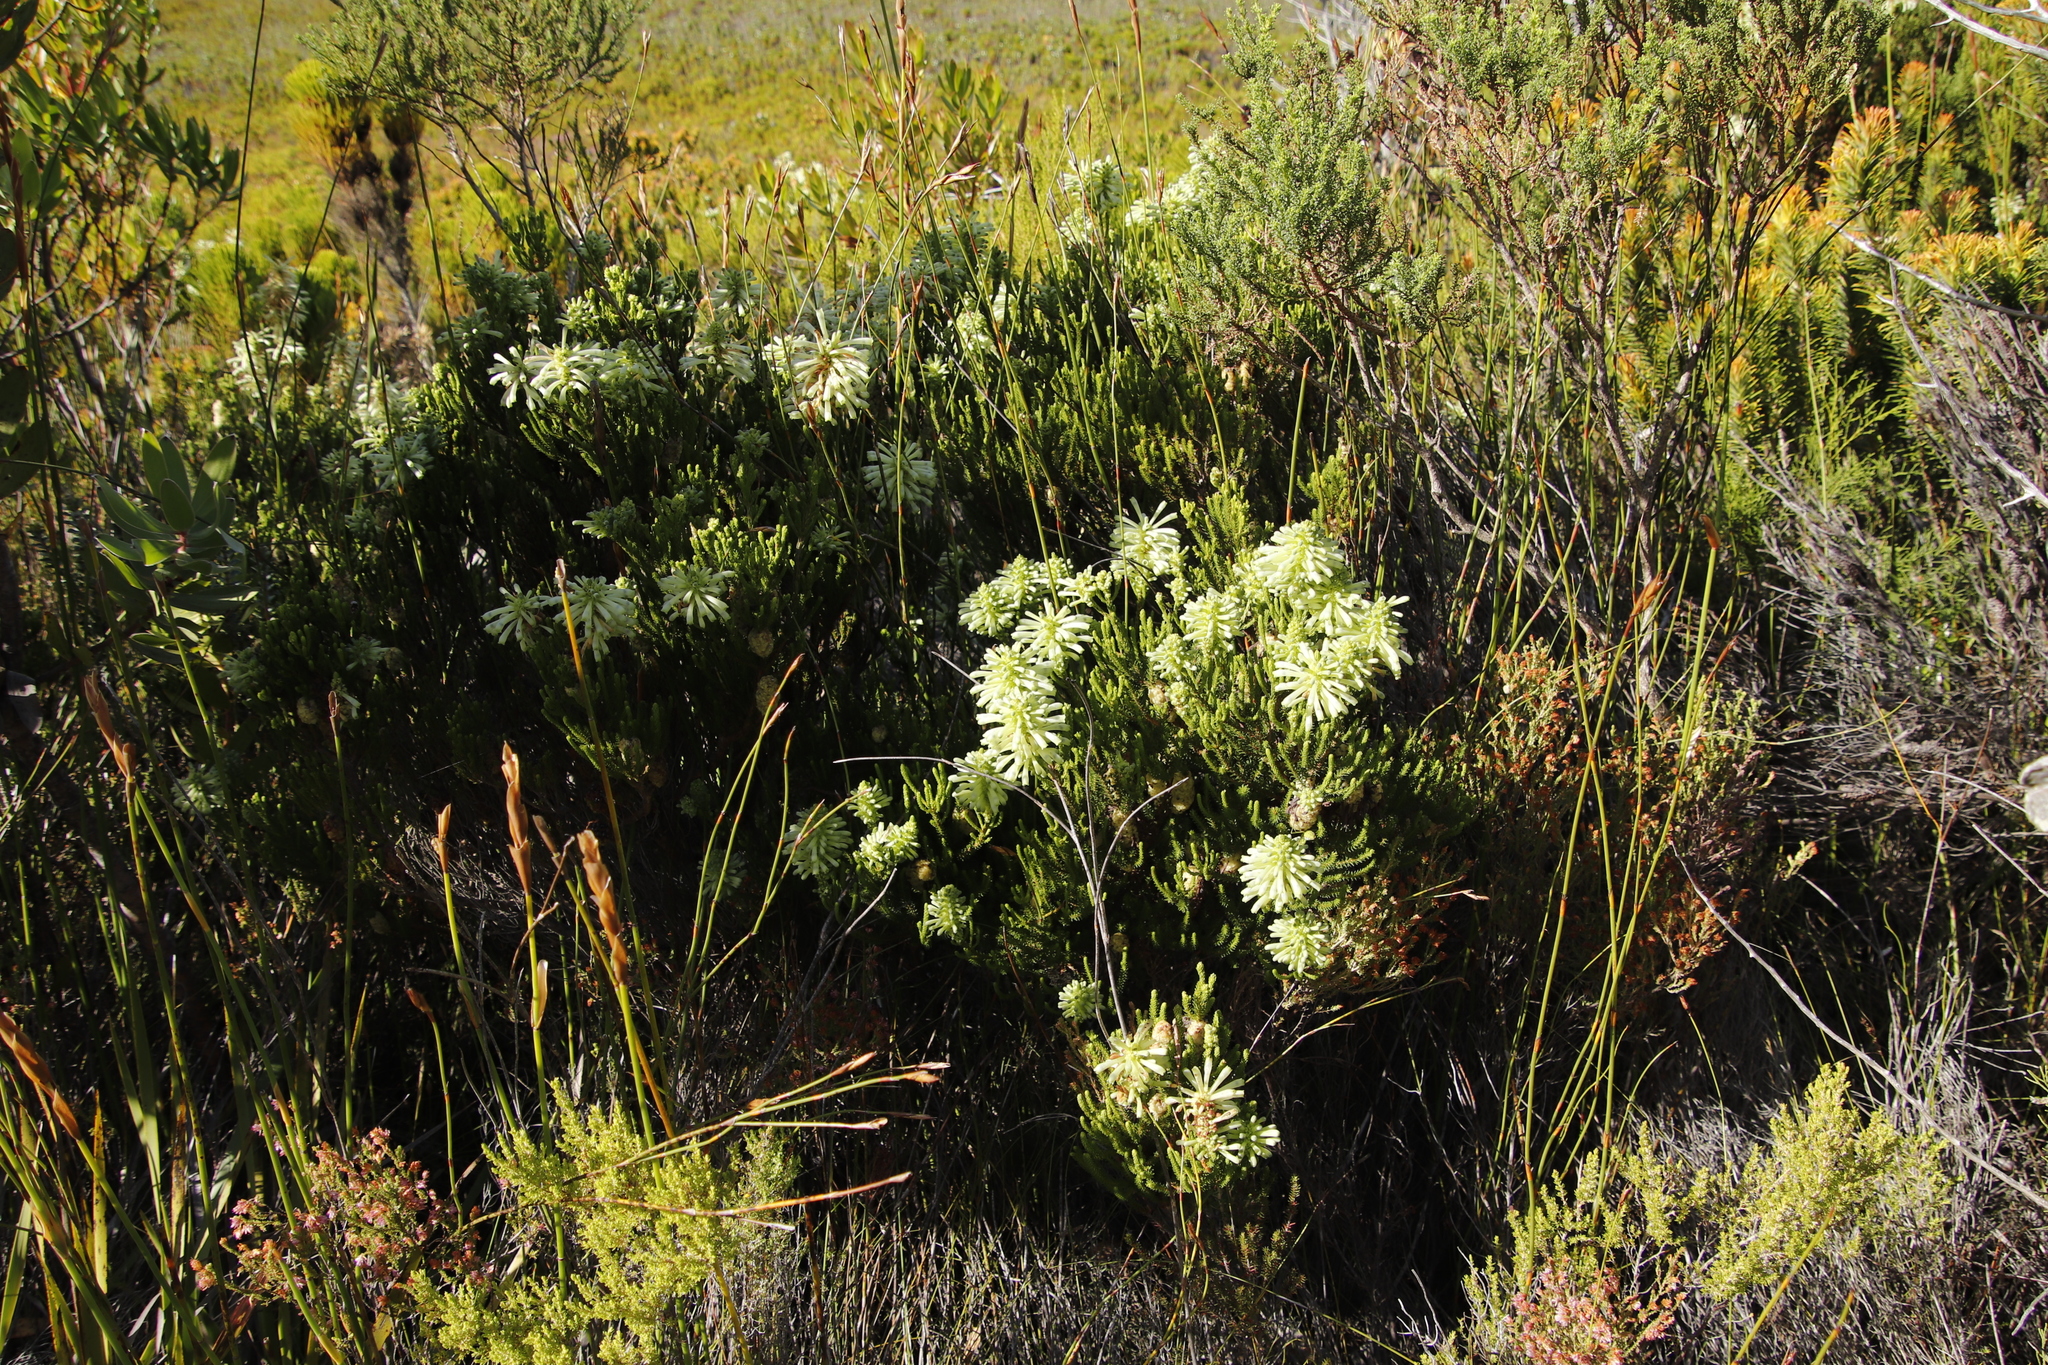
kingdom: Plantae
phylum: Tracheophyta
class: Magnoliopsida
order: Ericales
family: Ericaceae
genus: Erica
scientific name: Erica sessiliflora
